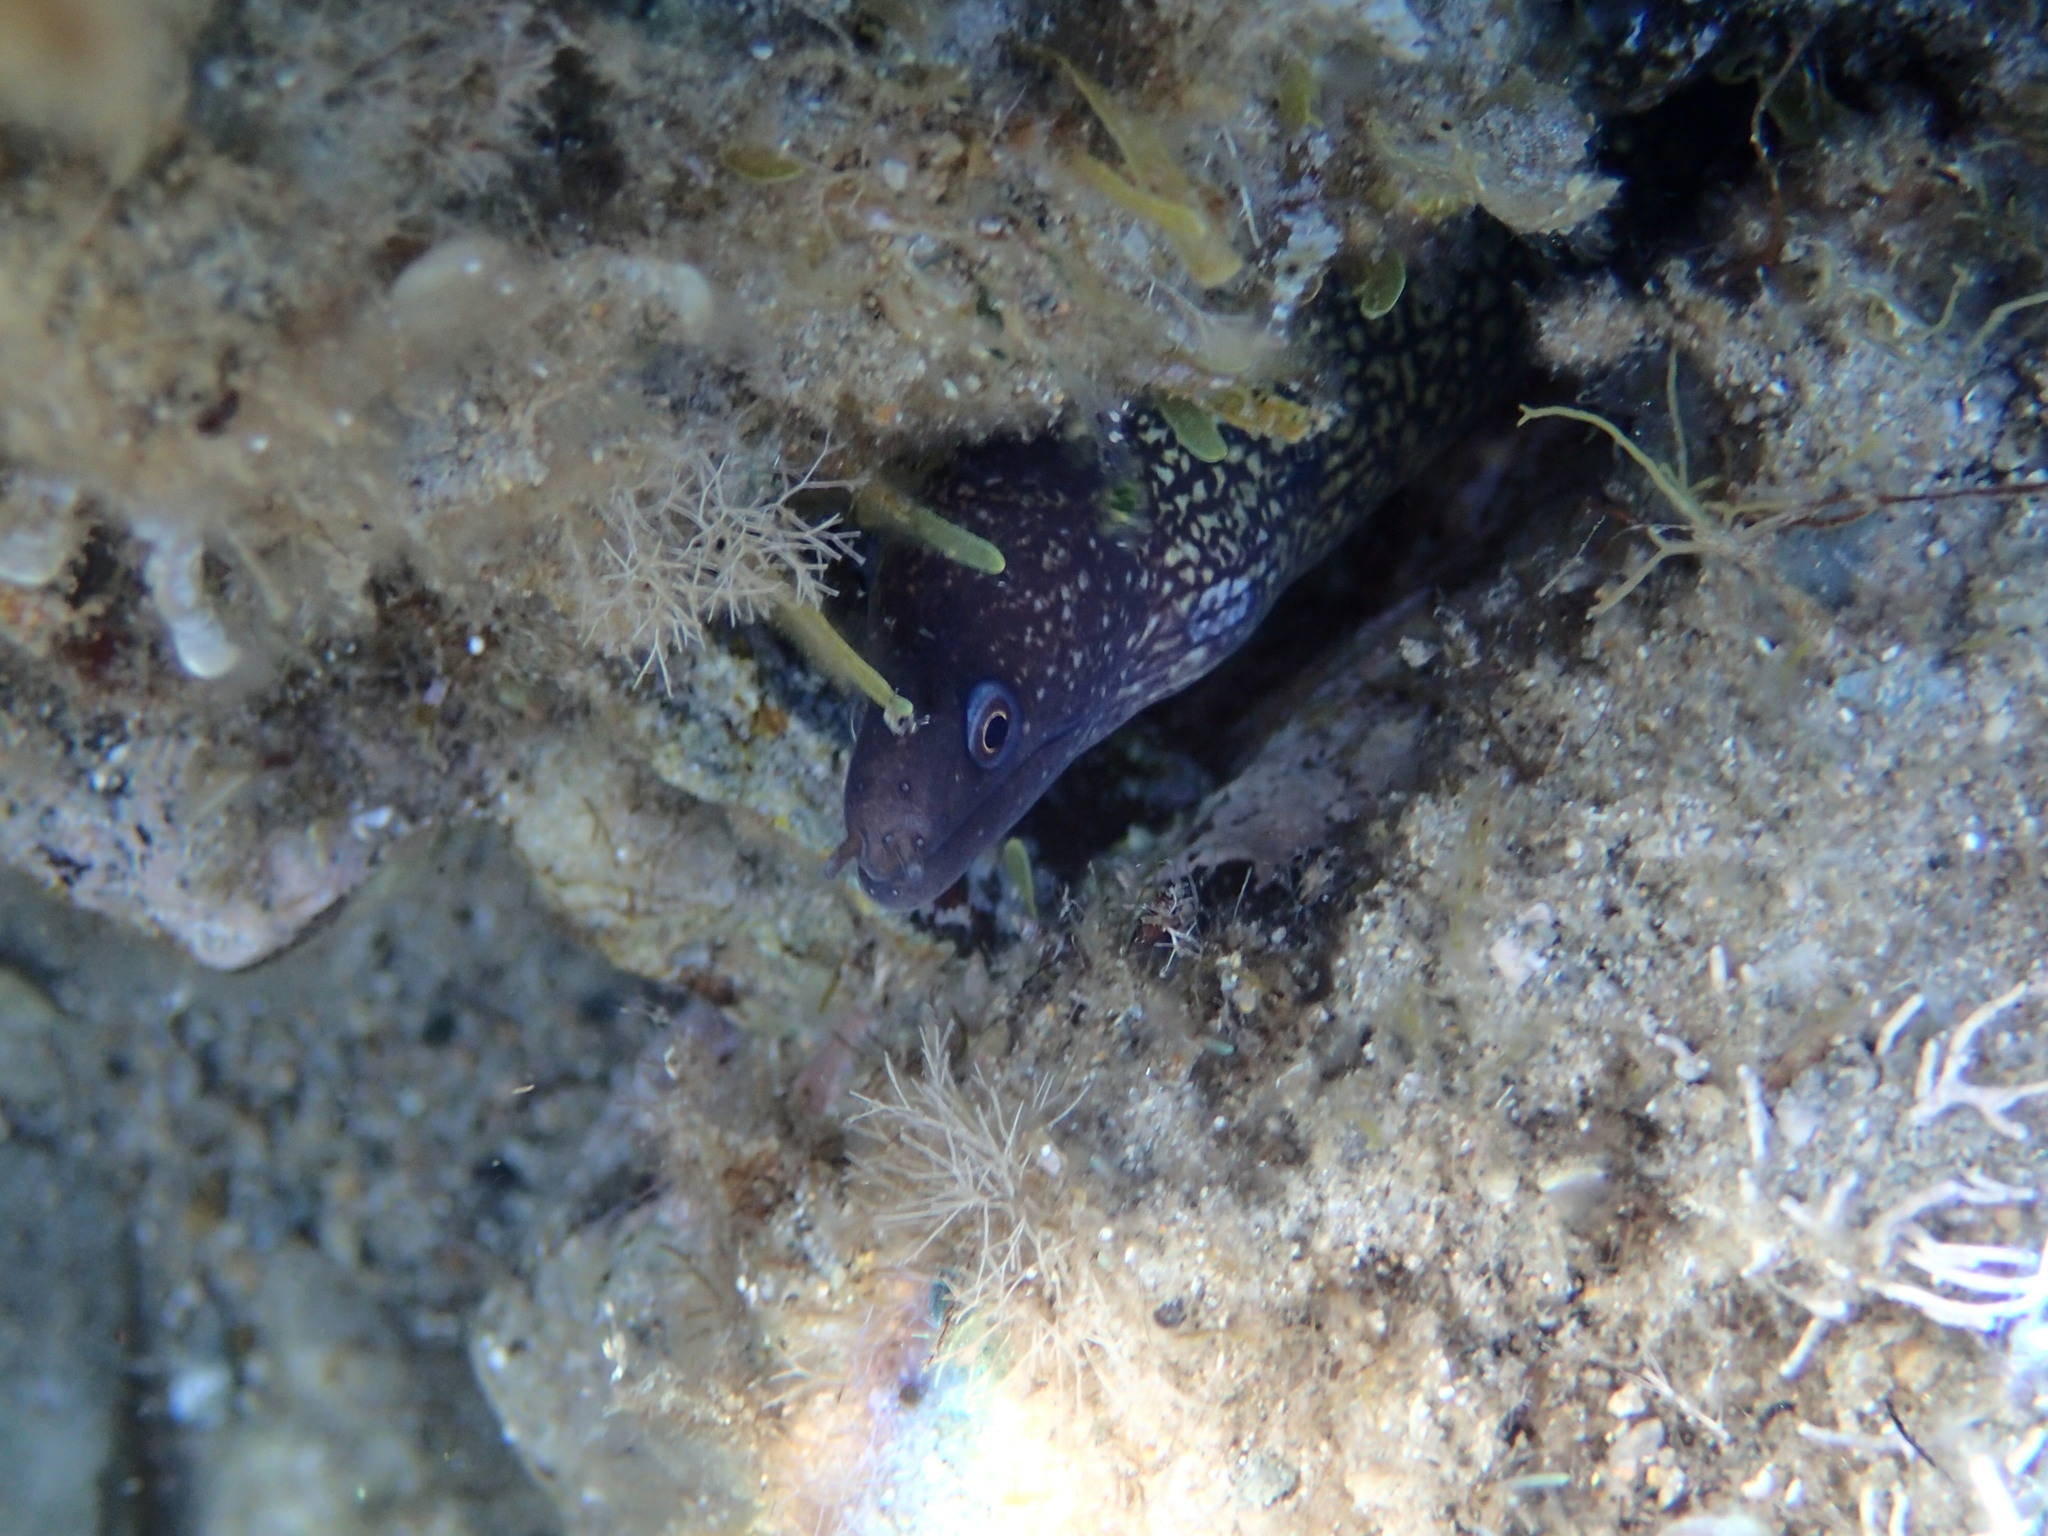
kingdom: Animalia
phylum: Chordata
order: Anguilliformes
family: Muraenidae
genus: Muraena
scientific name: Muraena helena
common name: Mediterranean moray
